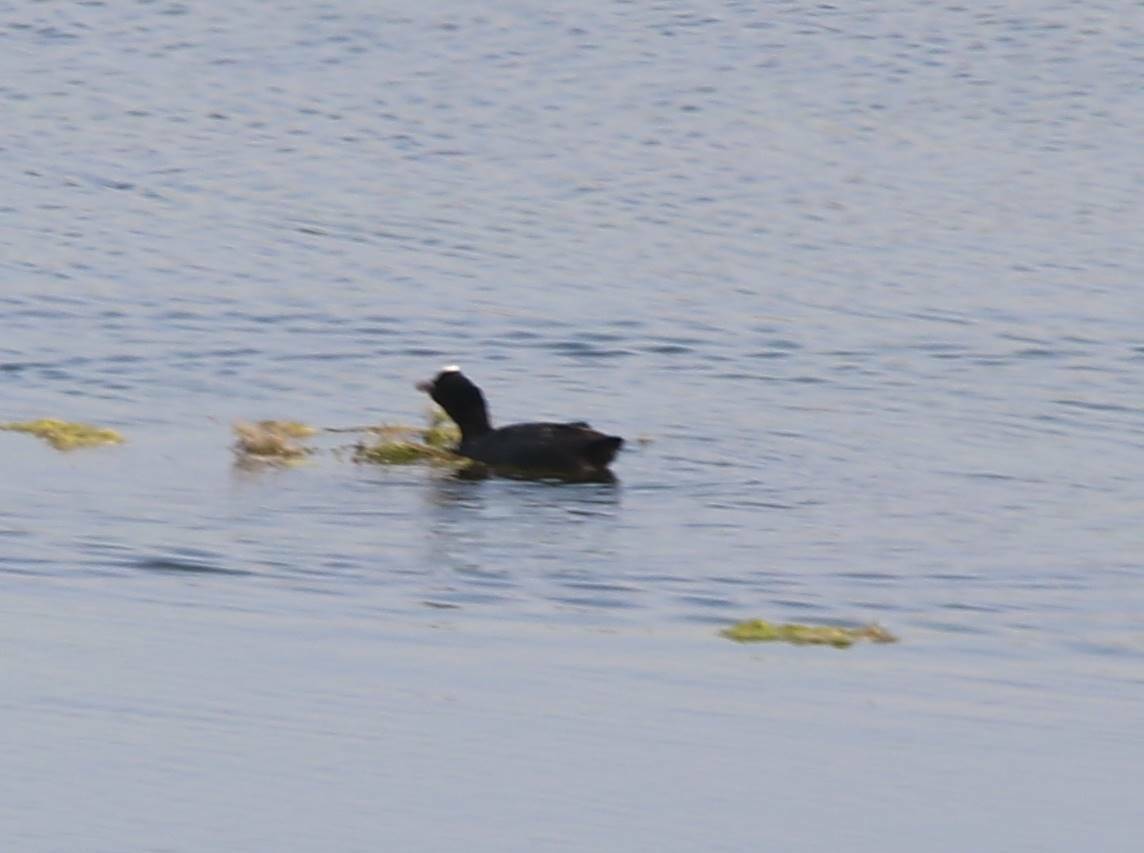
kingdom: Animalia
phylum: Chordata
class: Aves
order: Gruiformes
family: Rallidae
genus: Fulica
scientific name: Fulica atra
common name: Eurasian coot
